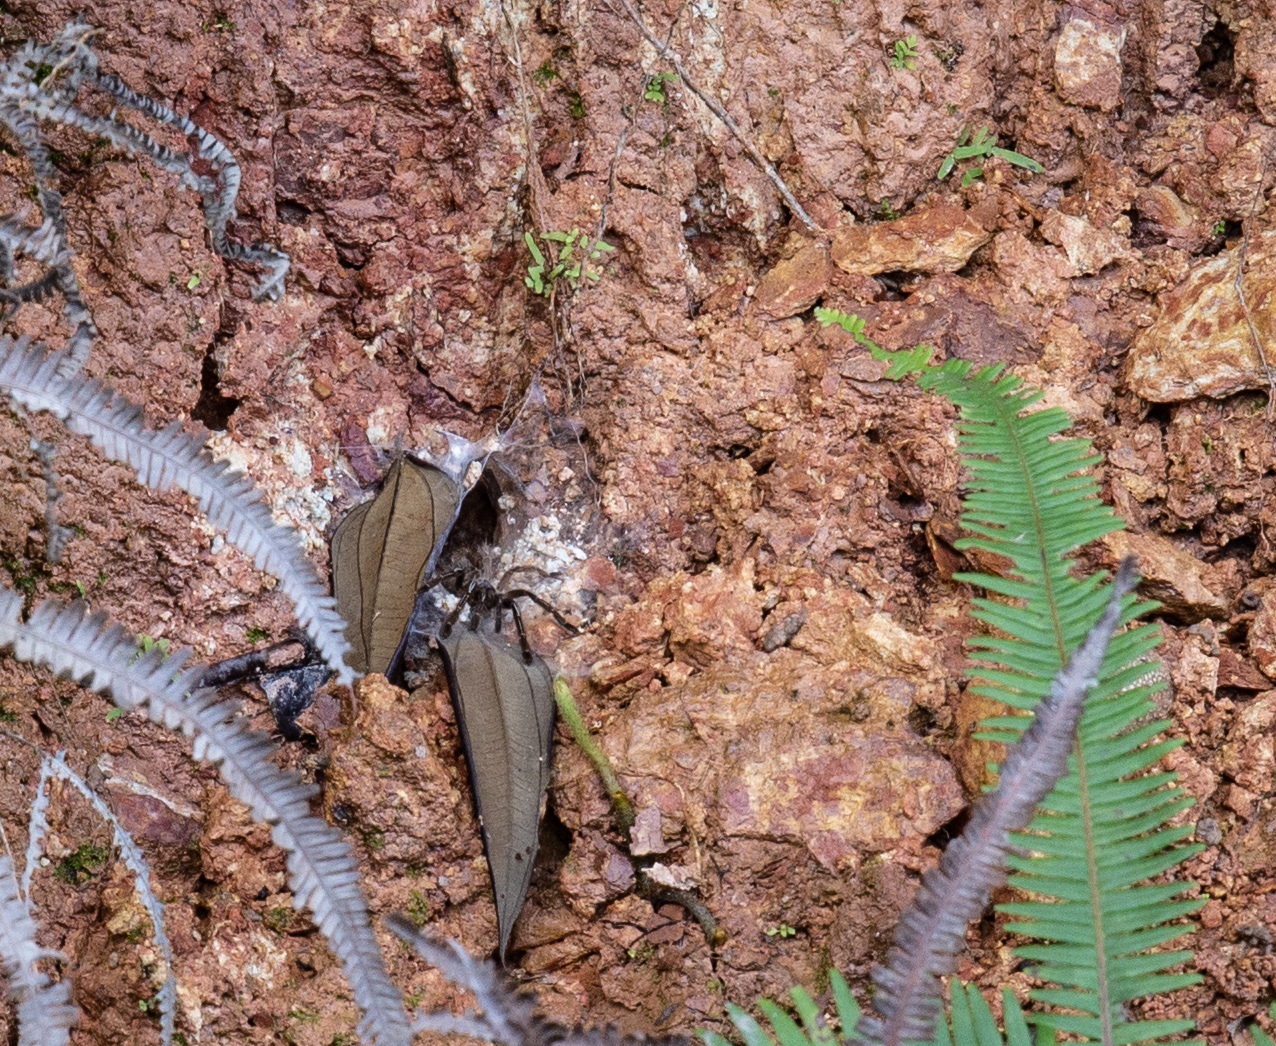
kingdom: Animalia
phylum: Arthropoda
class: Arachnida
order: Araneae
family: Theraphosidae
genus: Ephebopus
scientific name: Ephebopus murinus
